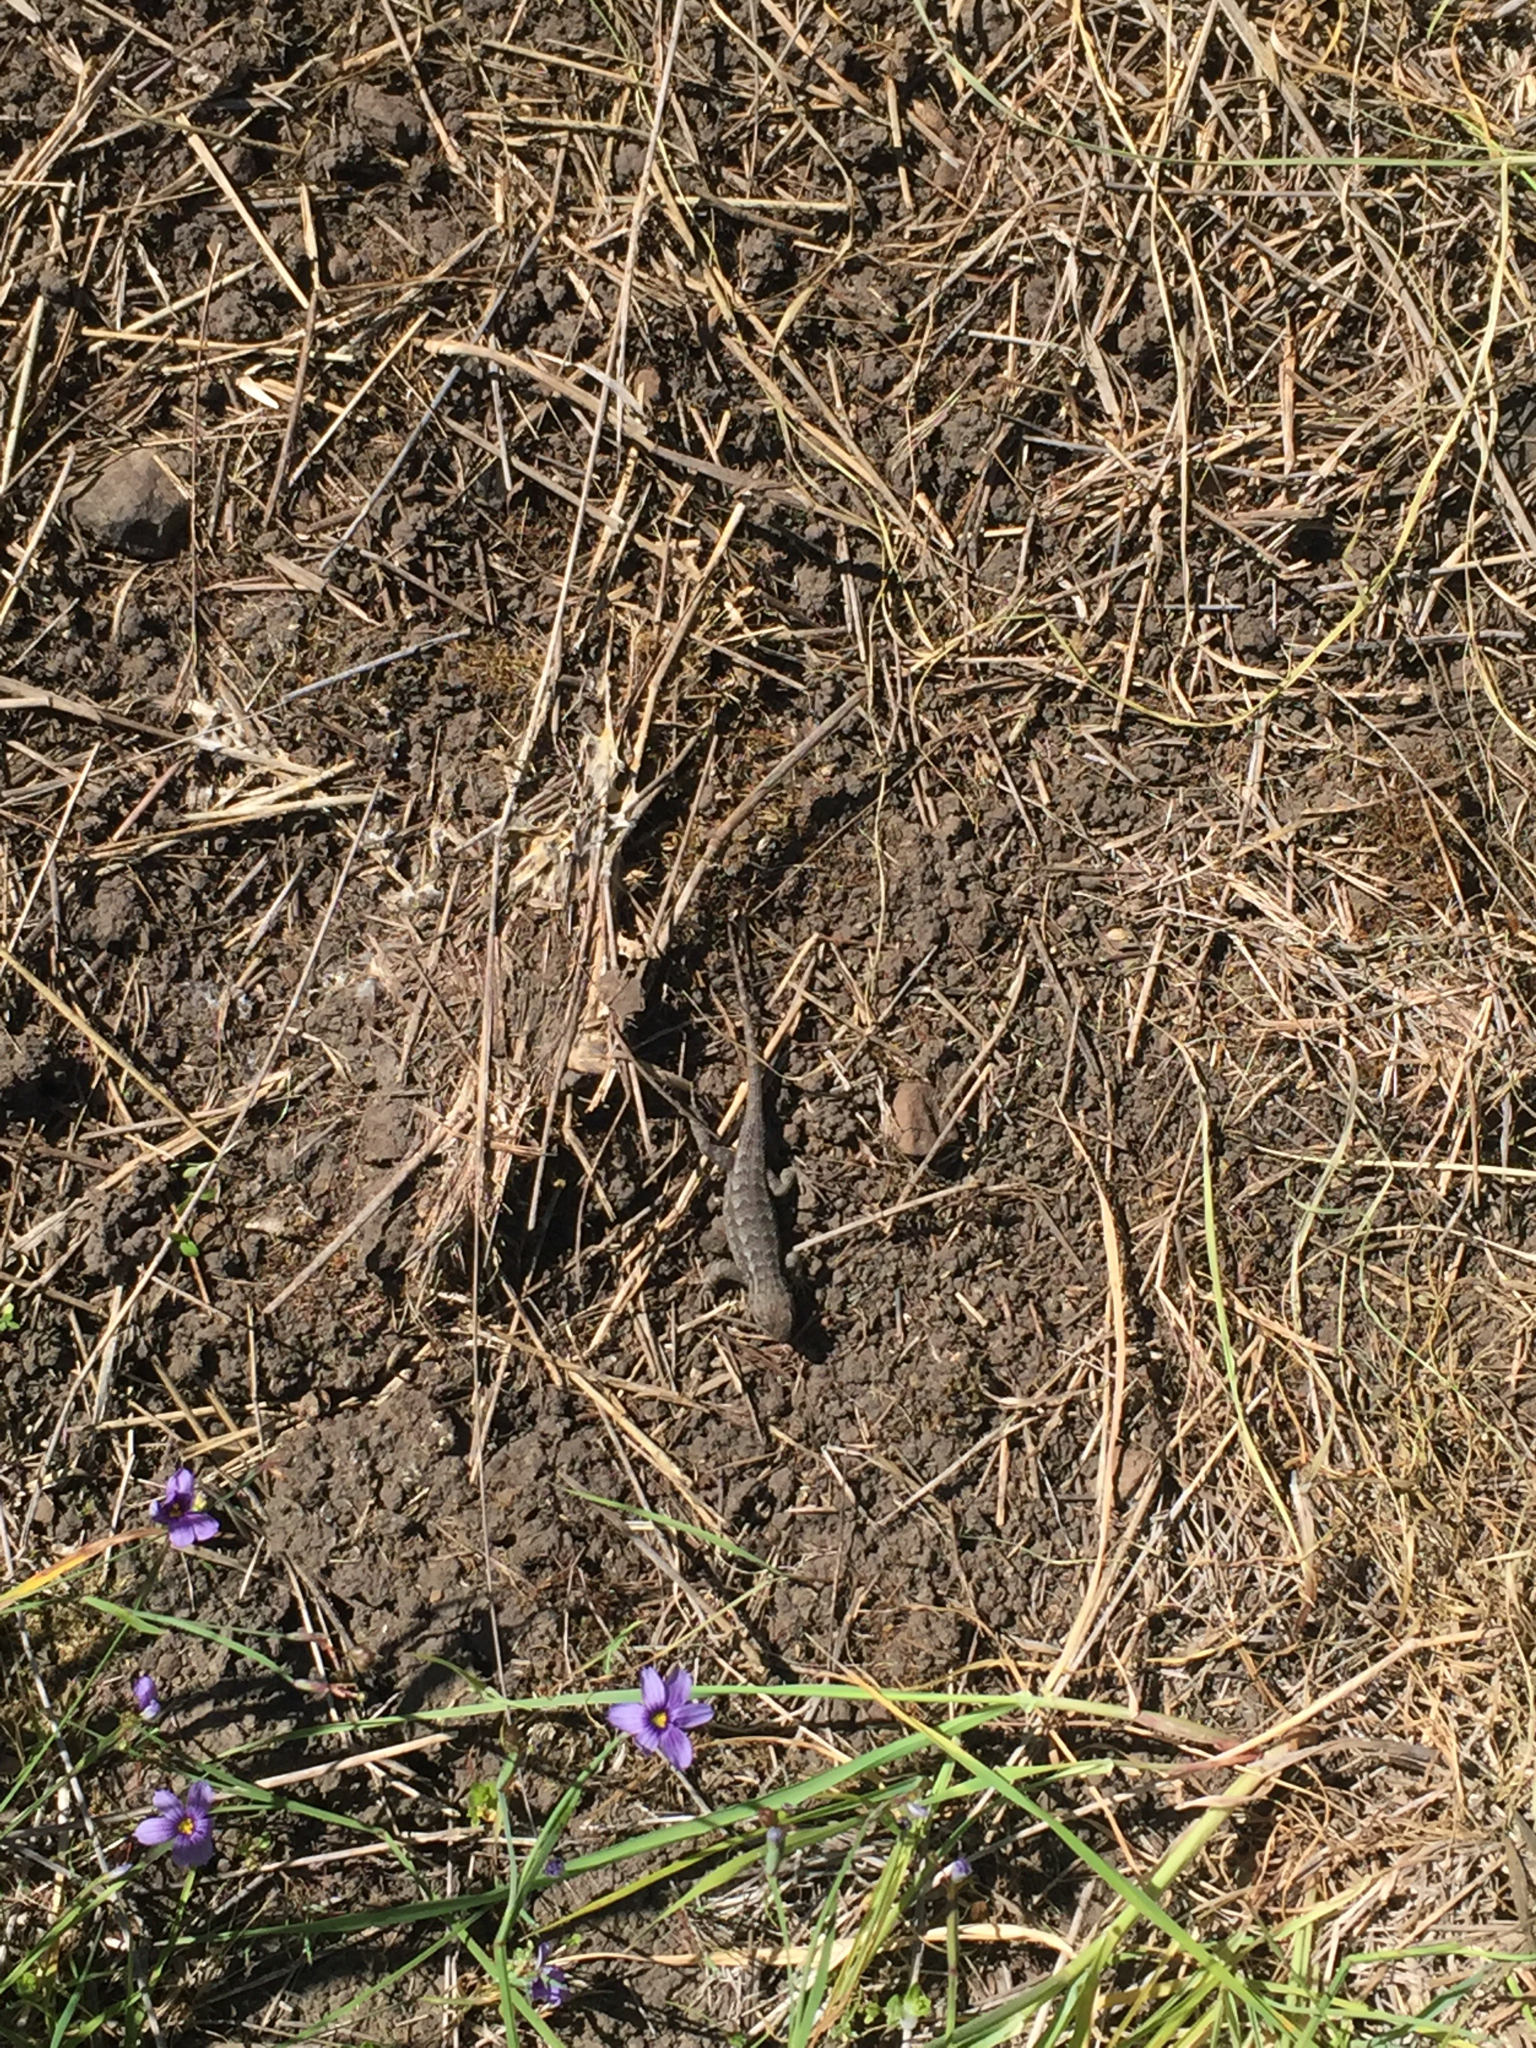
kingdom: Animalia
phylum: Chordata
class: Squamata
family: Phrynosomatidae
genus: Sceloporus
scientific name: Sceloporus occidentalis
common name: Western fence lizard
